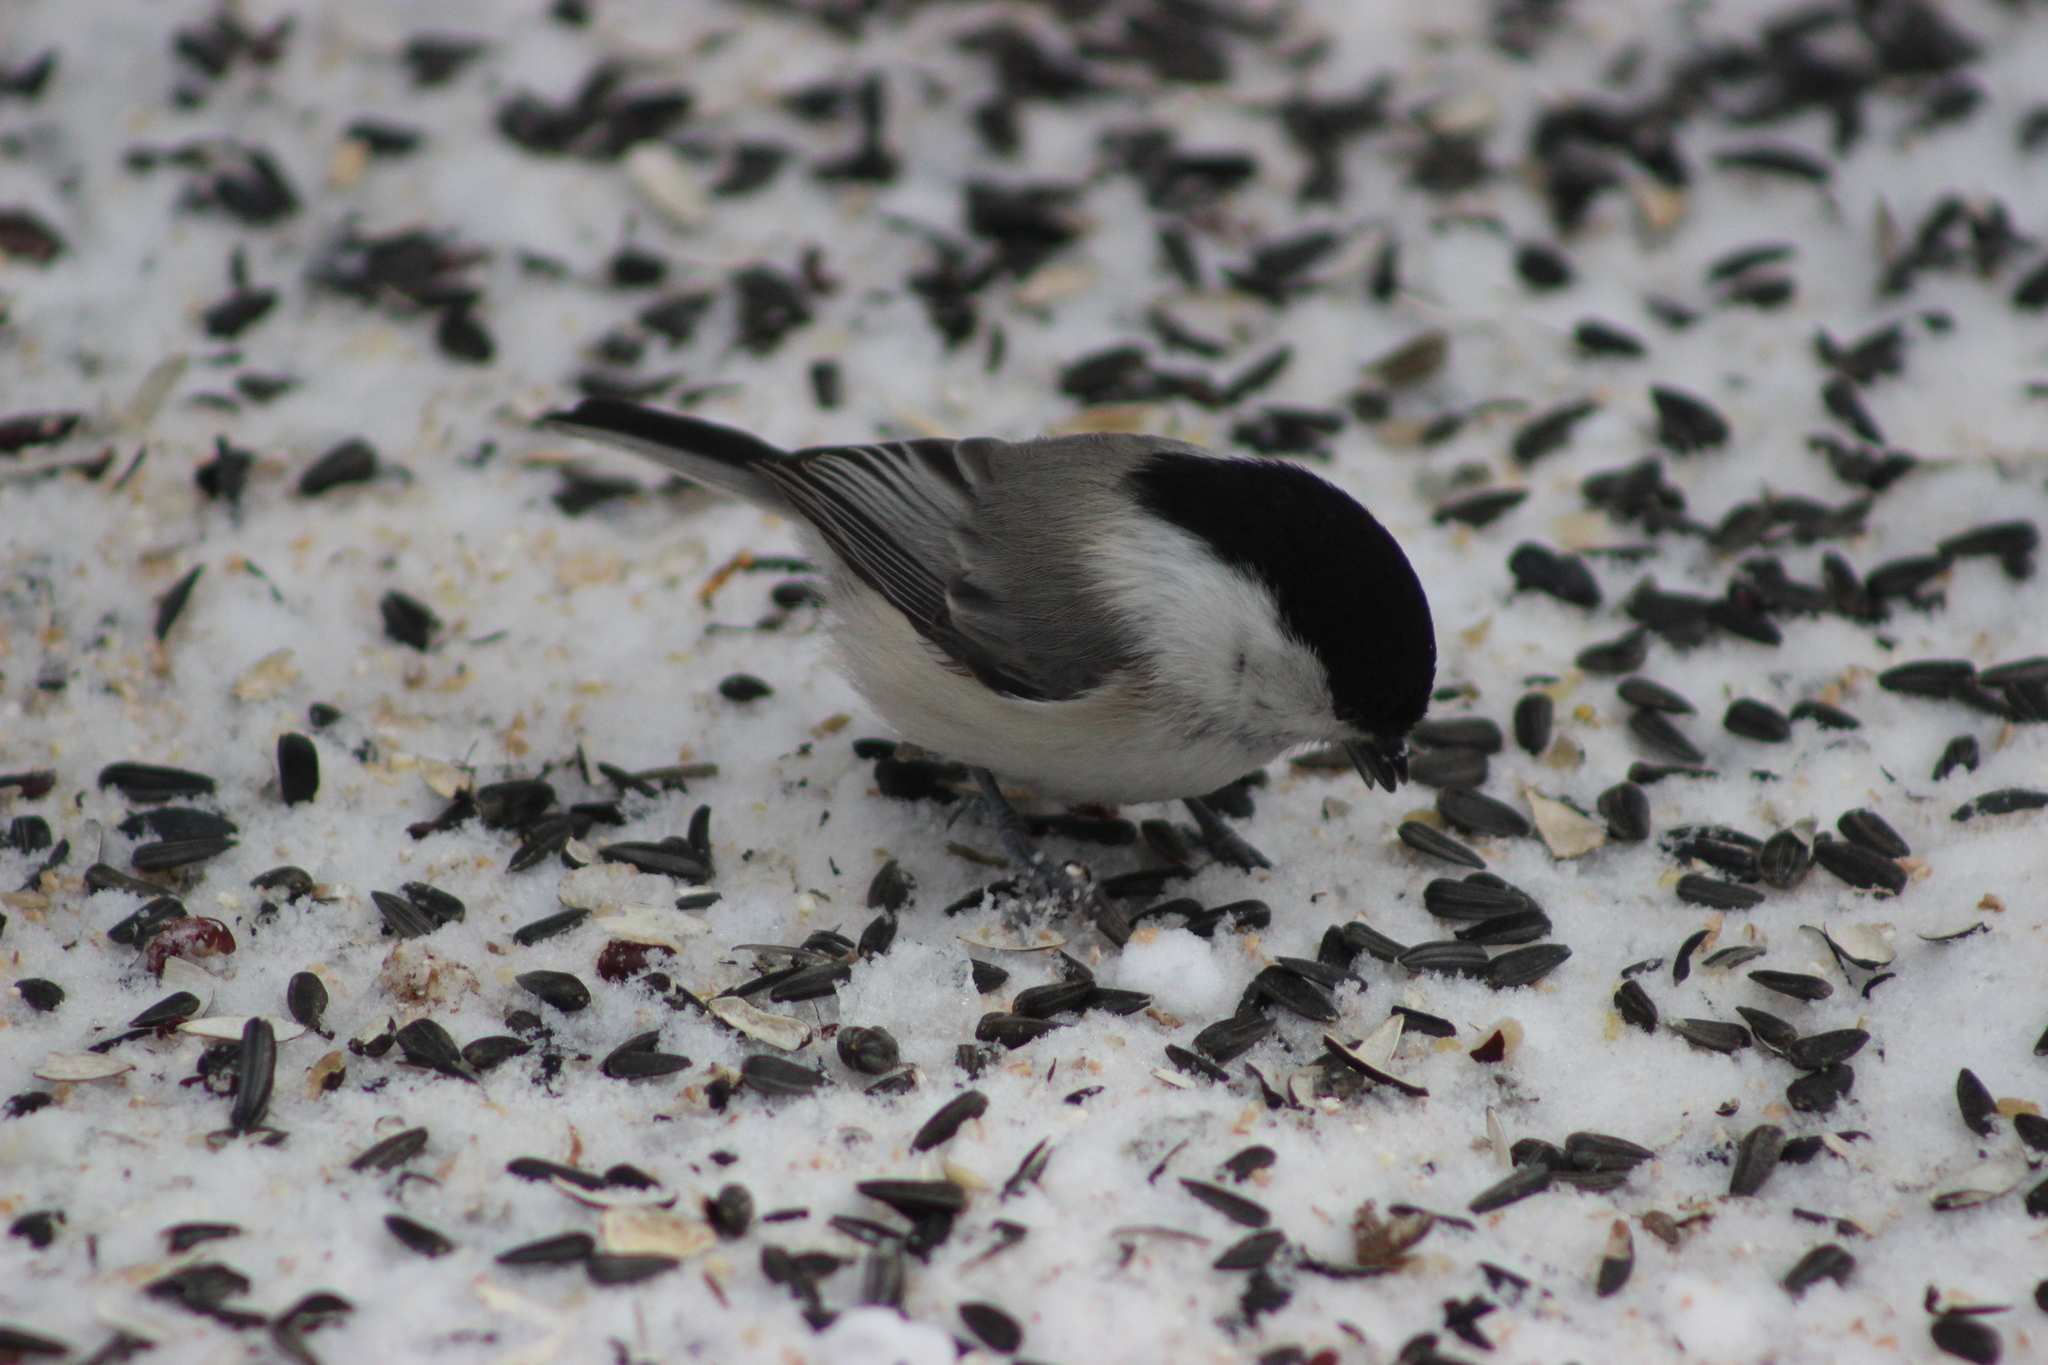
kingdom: Animalia
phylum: Chordata
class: Aves
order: Passeriformes
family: Paridae
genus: Poecile
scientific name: Poecile montanus
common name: Willow tit
